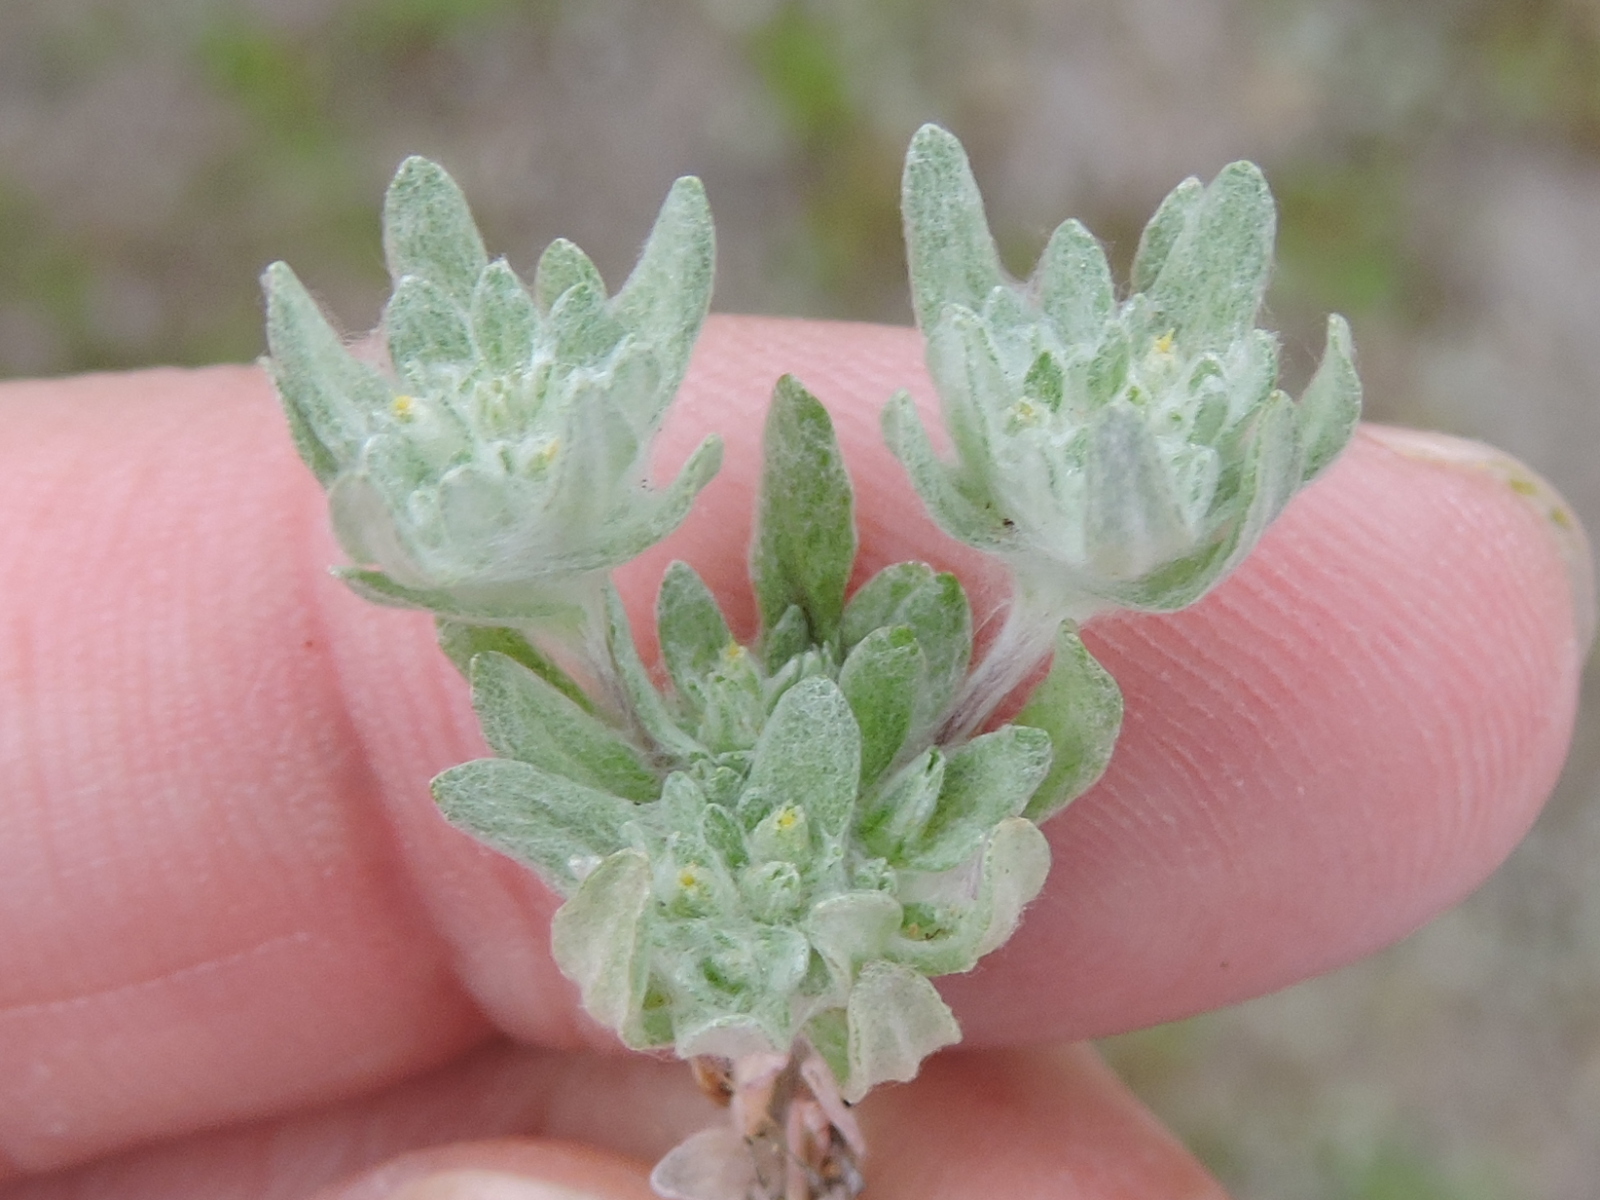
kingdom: Plantae
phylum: Tracheophyta
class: Magnoliopsida
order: Asterales
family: Asteraceae
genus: Diaperia
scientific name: Diaperia prolifera
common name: Big-head rabbit-tobacco
